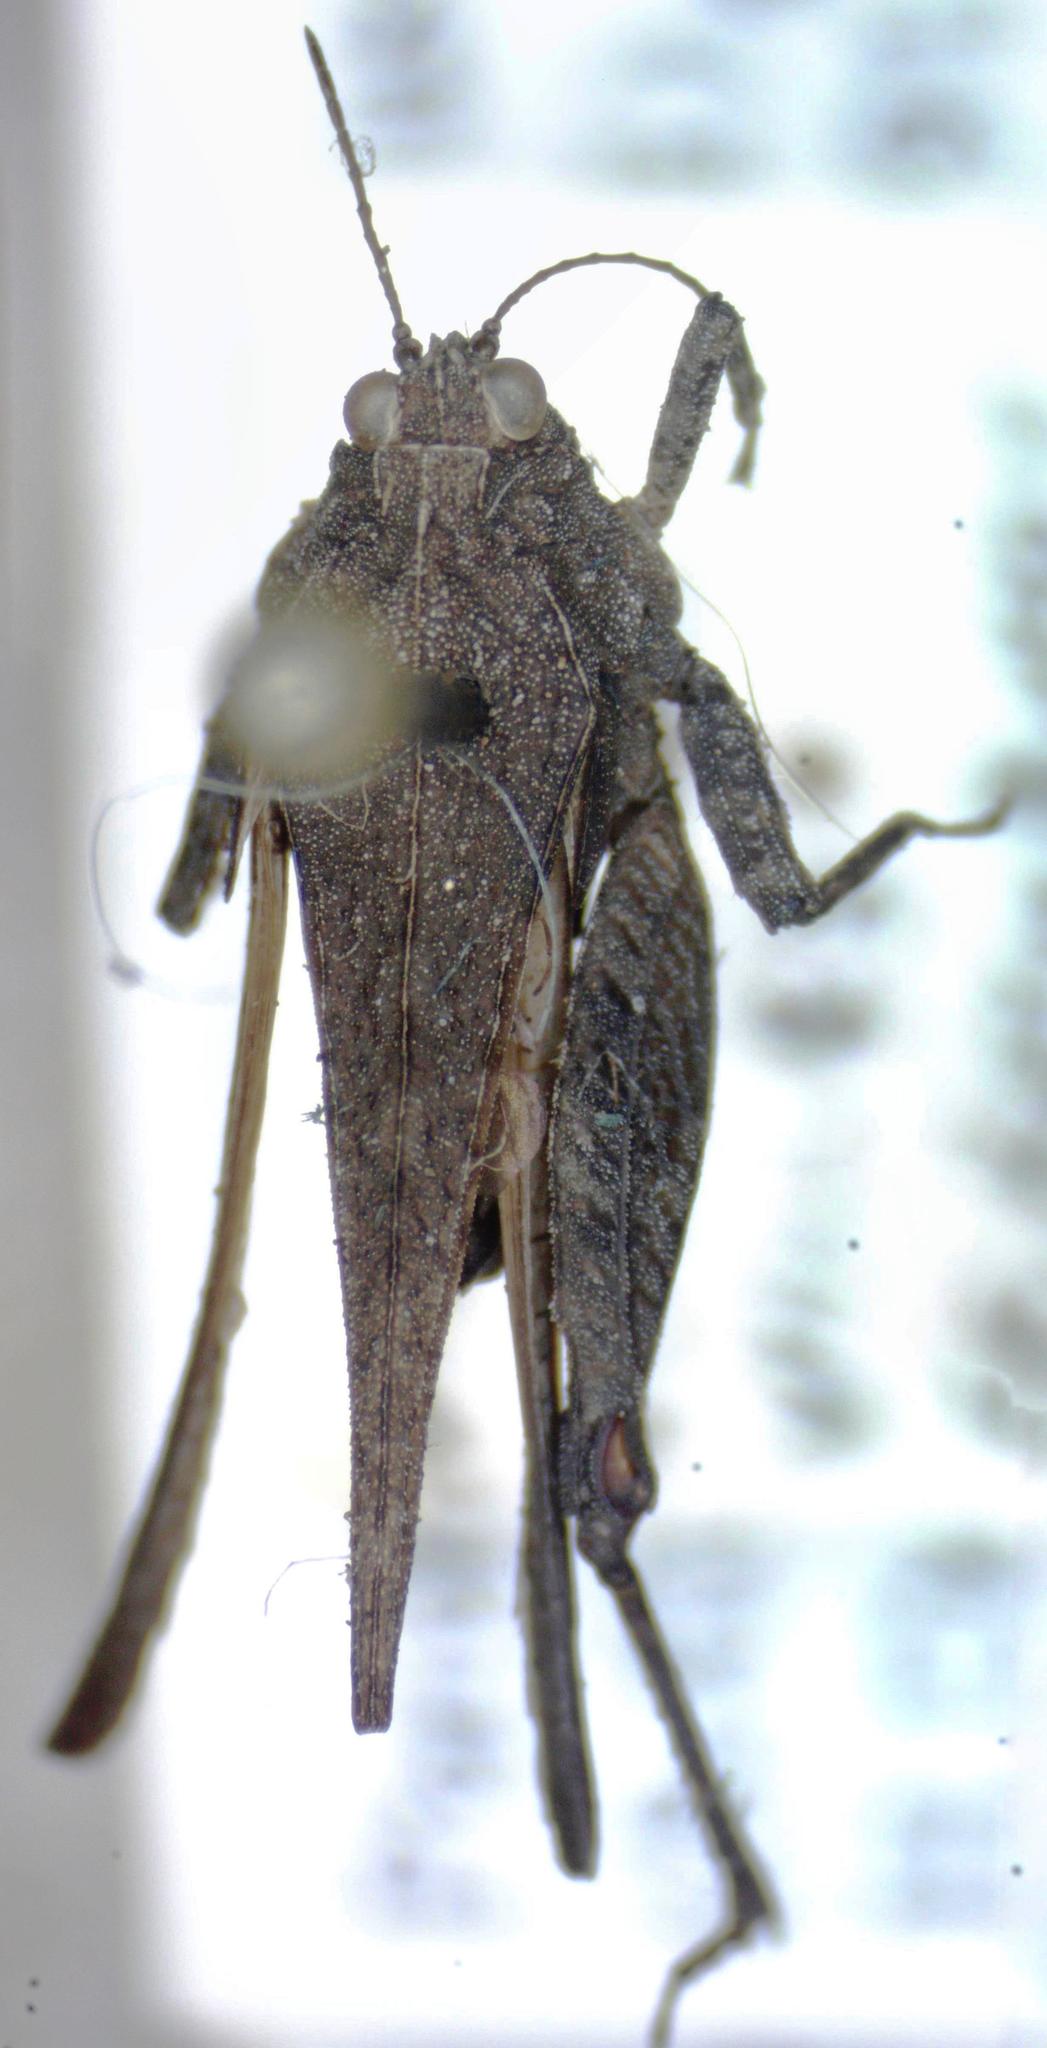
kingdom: Animalia
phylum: Arthropoda
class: Insecta
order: Orthoptera
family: Tetrigidae
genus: Paratettix
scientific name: Paratettix mexicanus
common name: Mexican pygmy grasshopper
